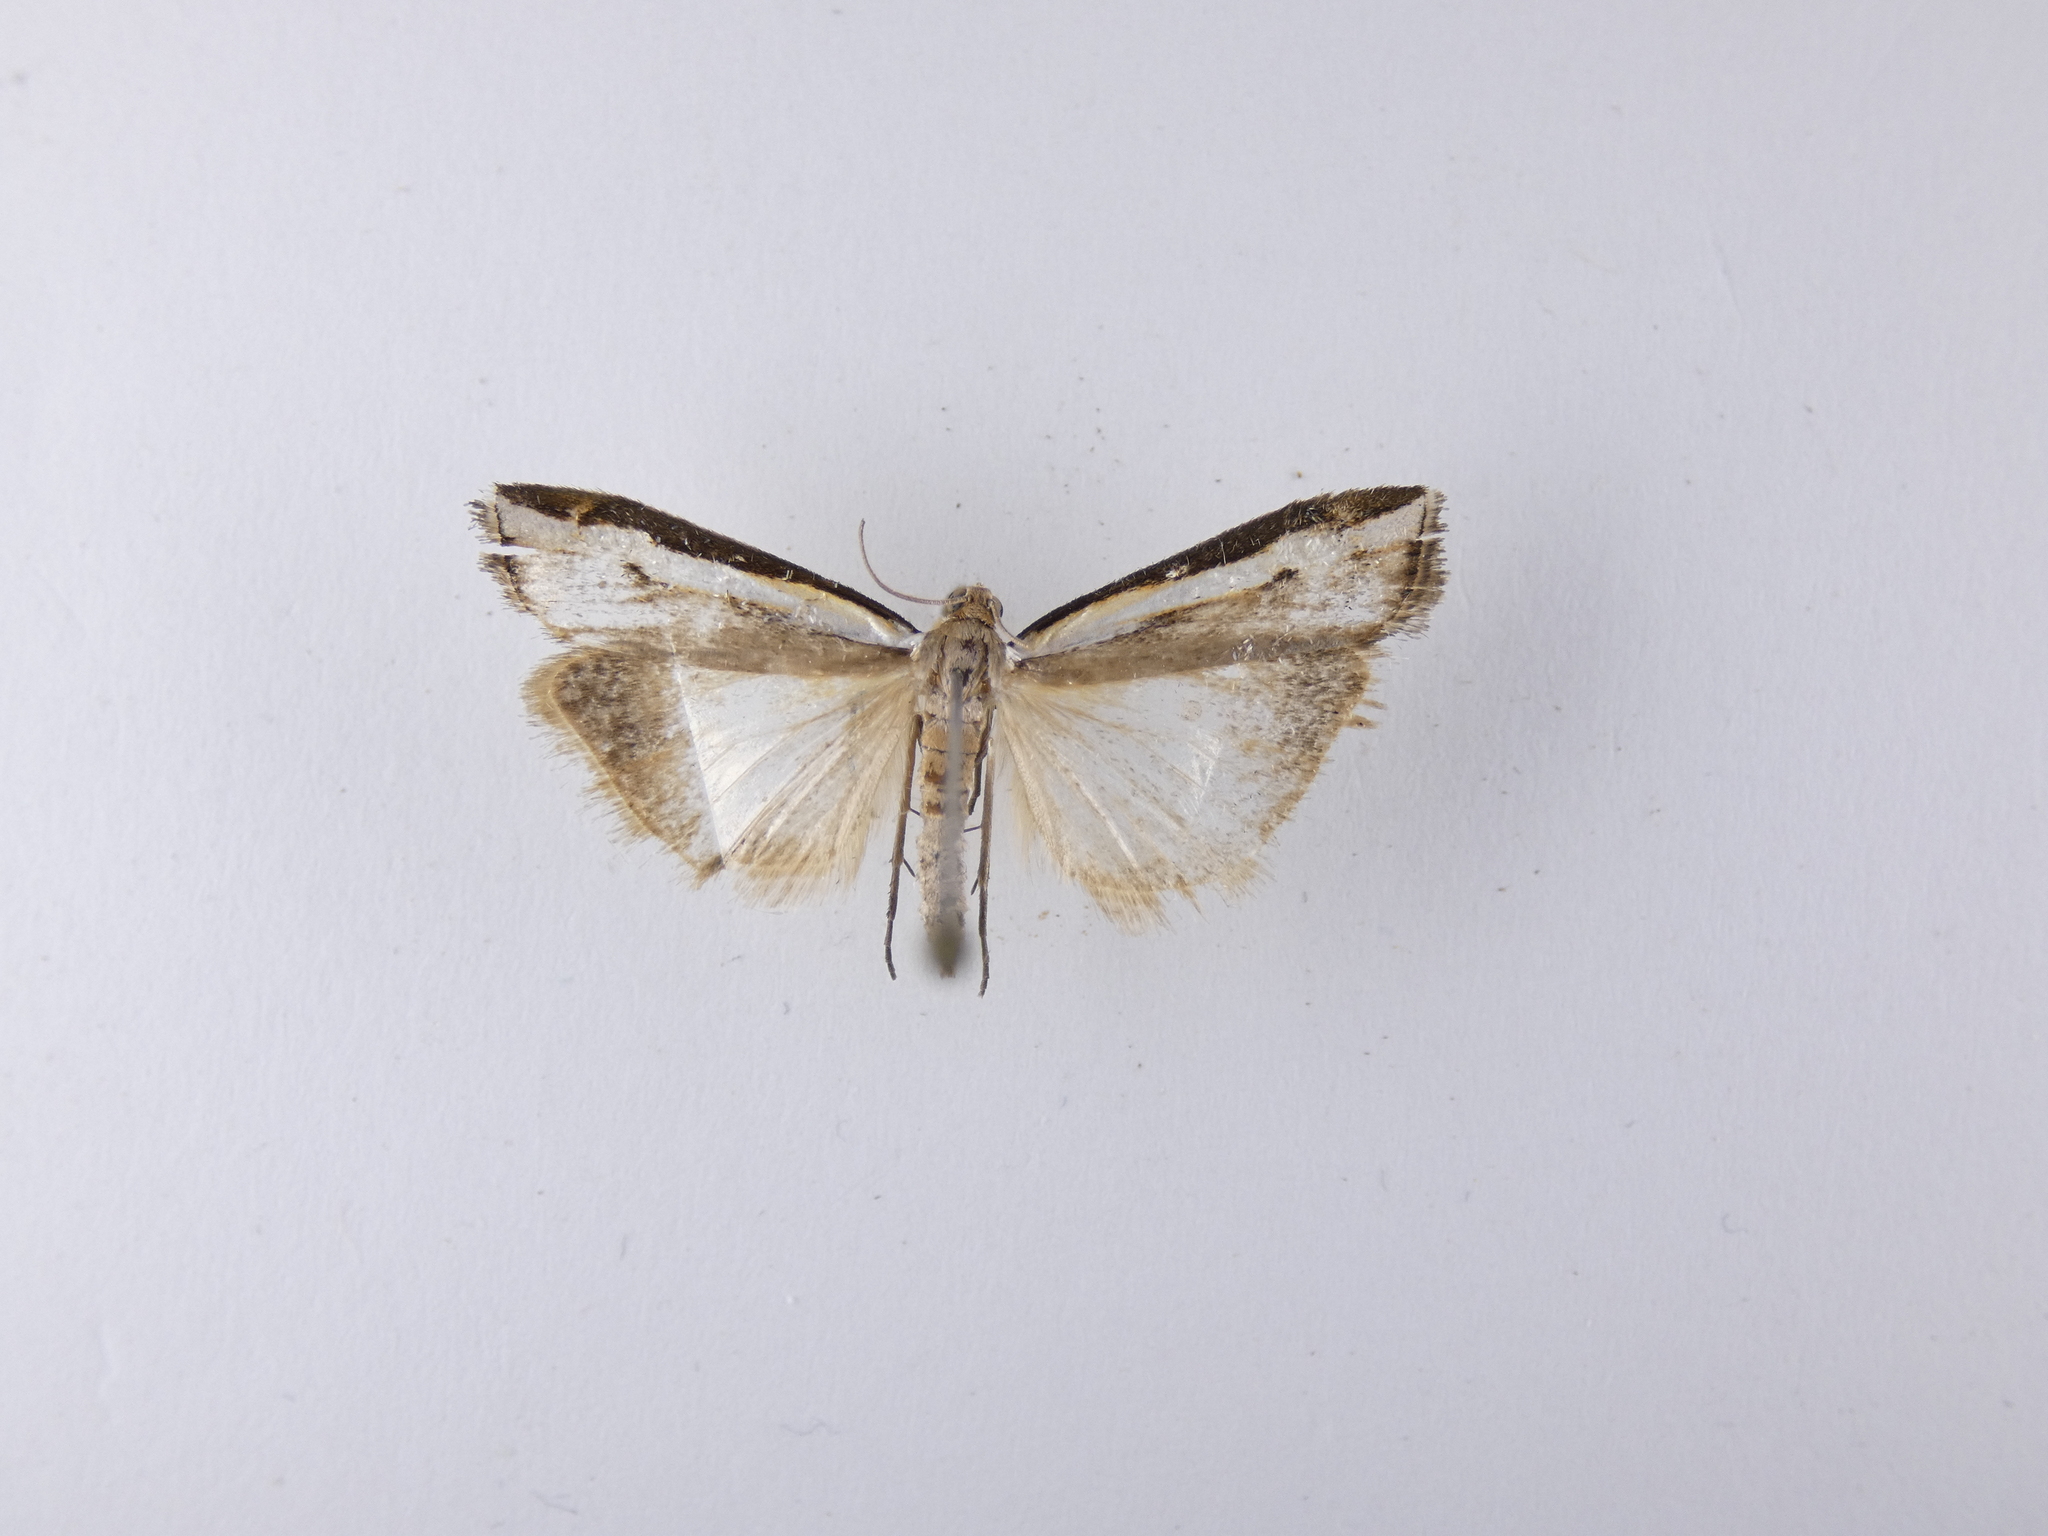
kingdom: Animalia
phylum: Arthropoda
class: Insecta
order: Lepidoptera
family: Crambidae
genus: Orocrambus
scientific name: Orocrambus flexuosellus
